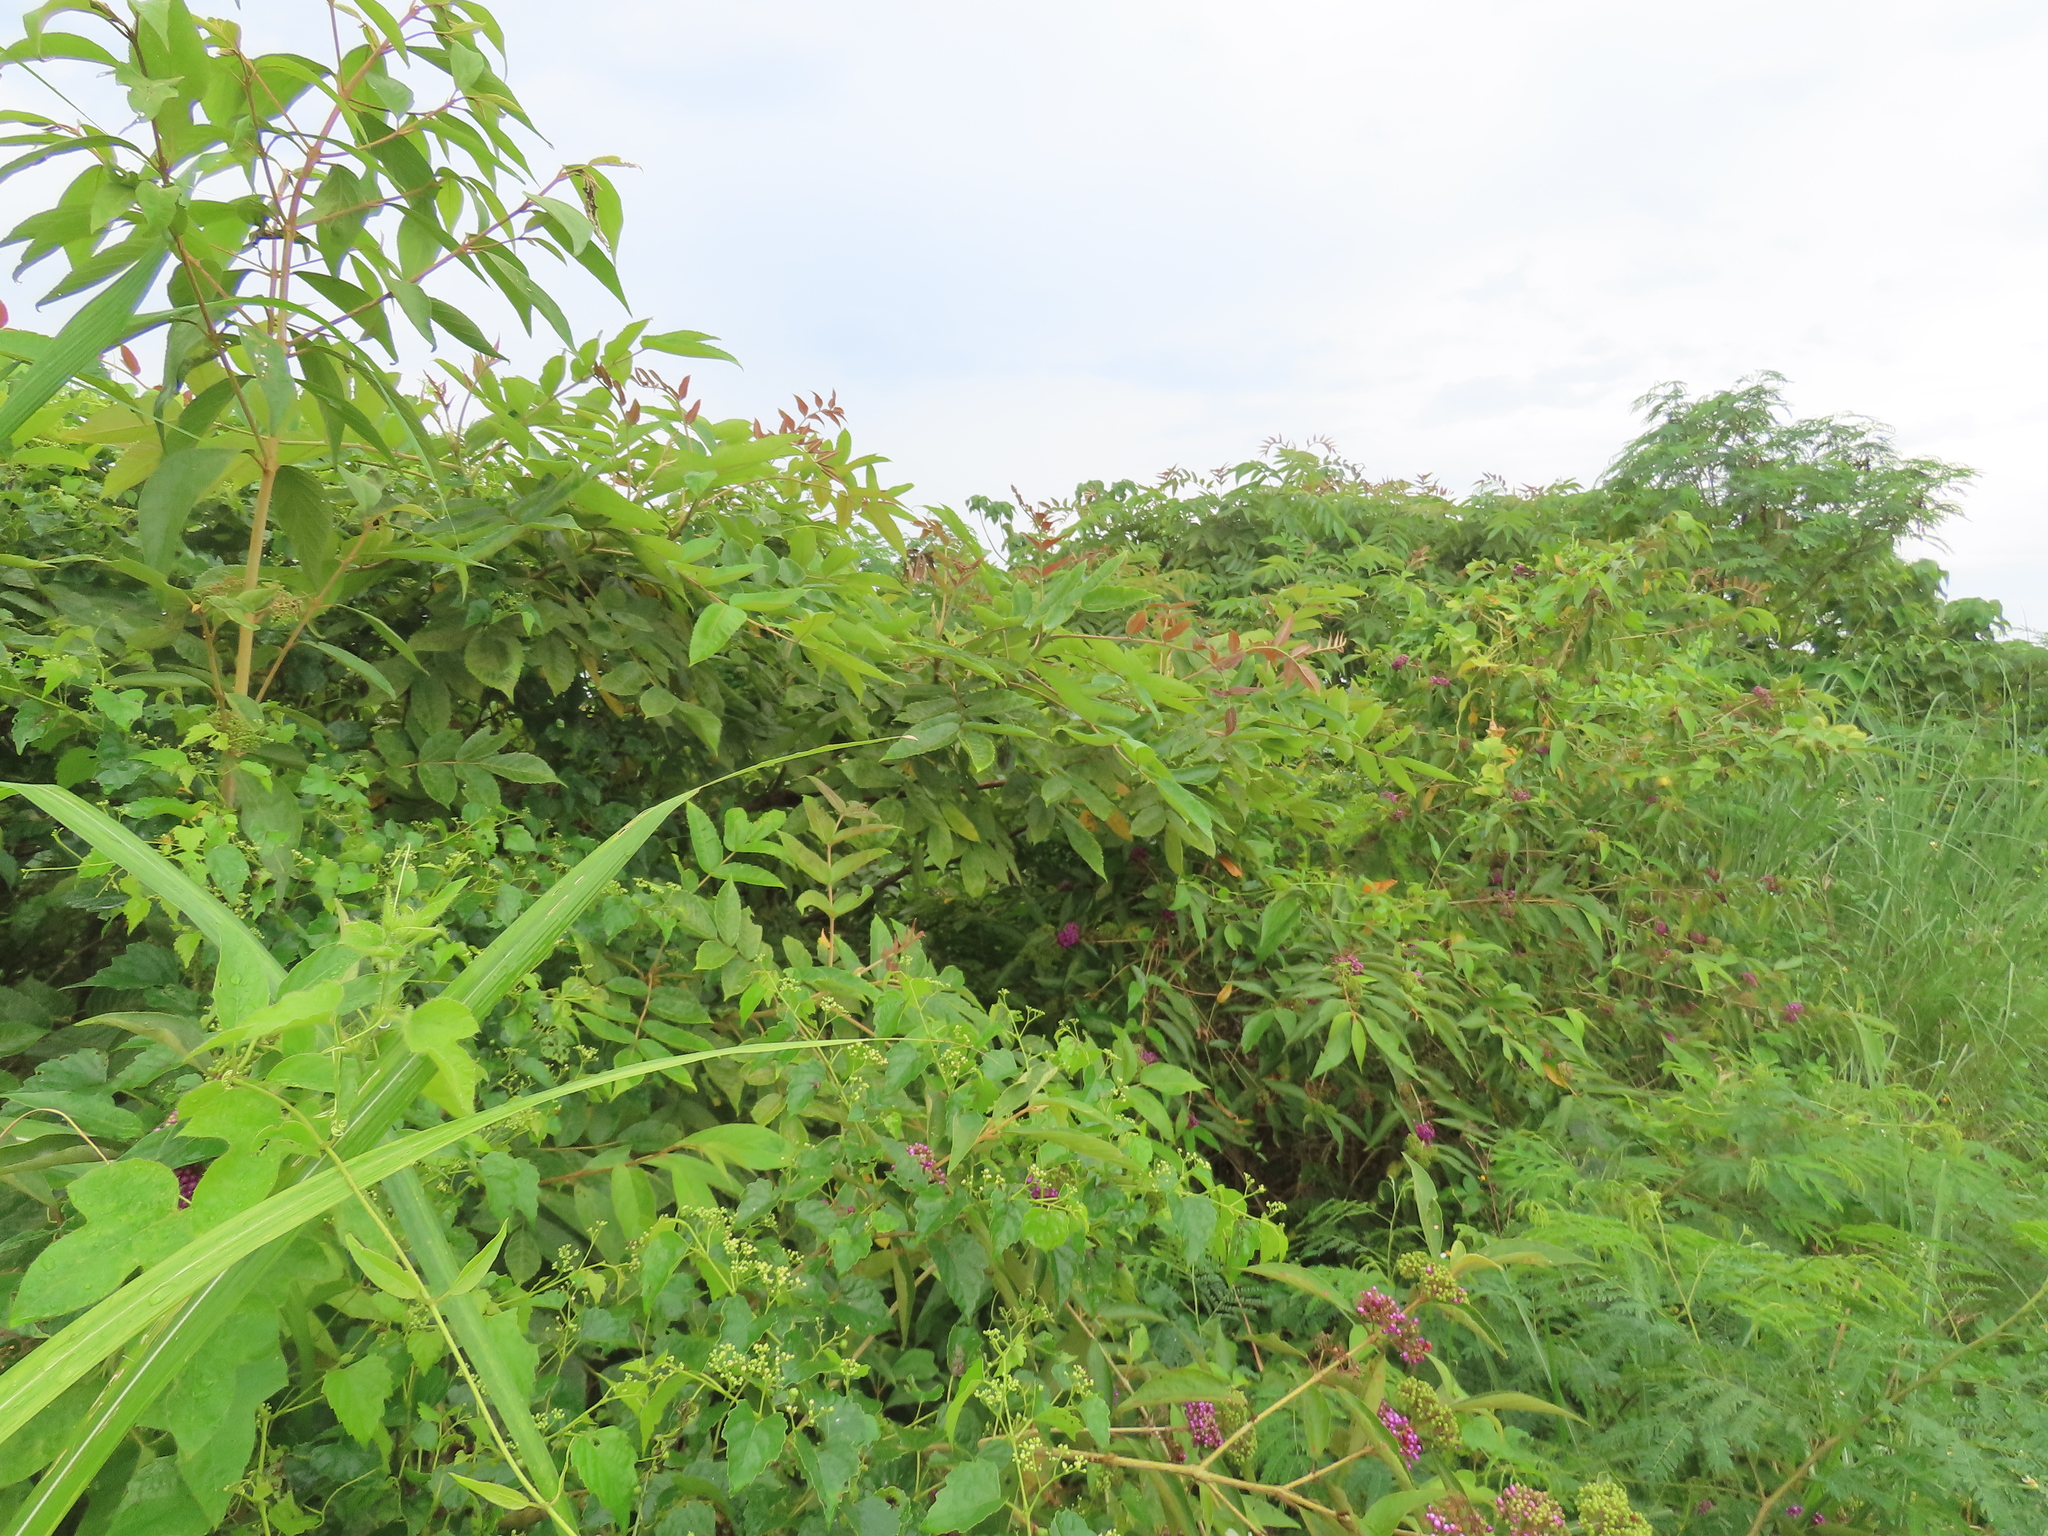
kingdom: Plantae
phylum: Tracheophyta
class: Magnoliopsida
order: Lamiales
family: Lamiaceae
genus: Callicarpa
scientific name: Callicarpa pedunculata
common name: Velvetleaf
